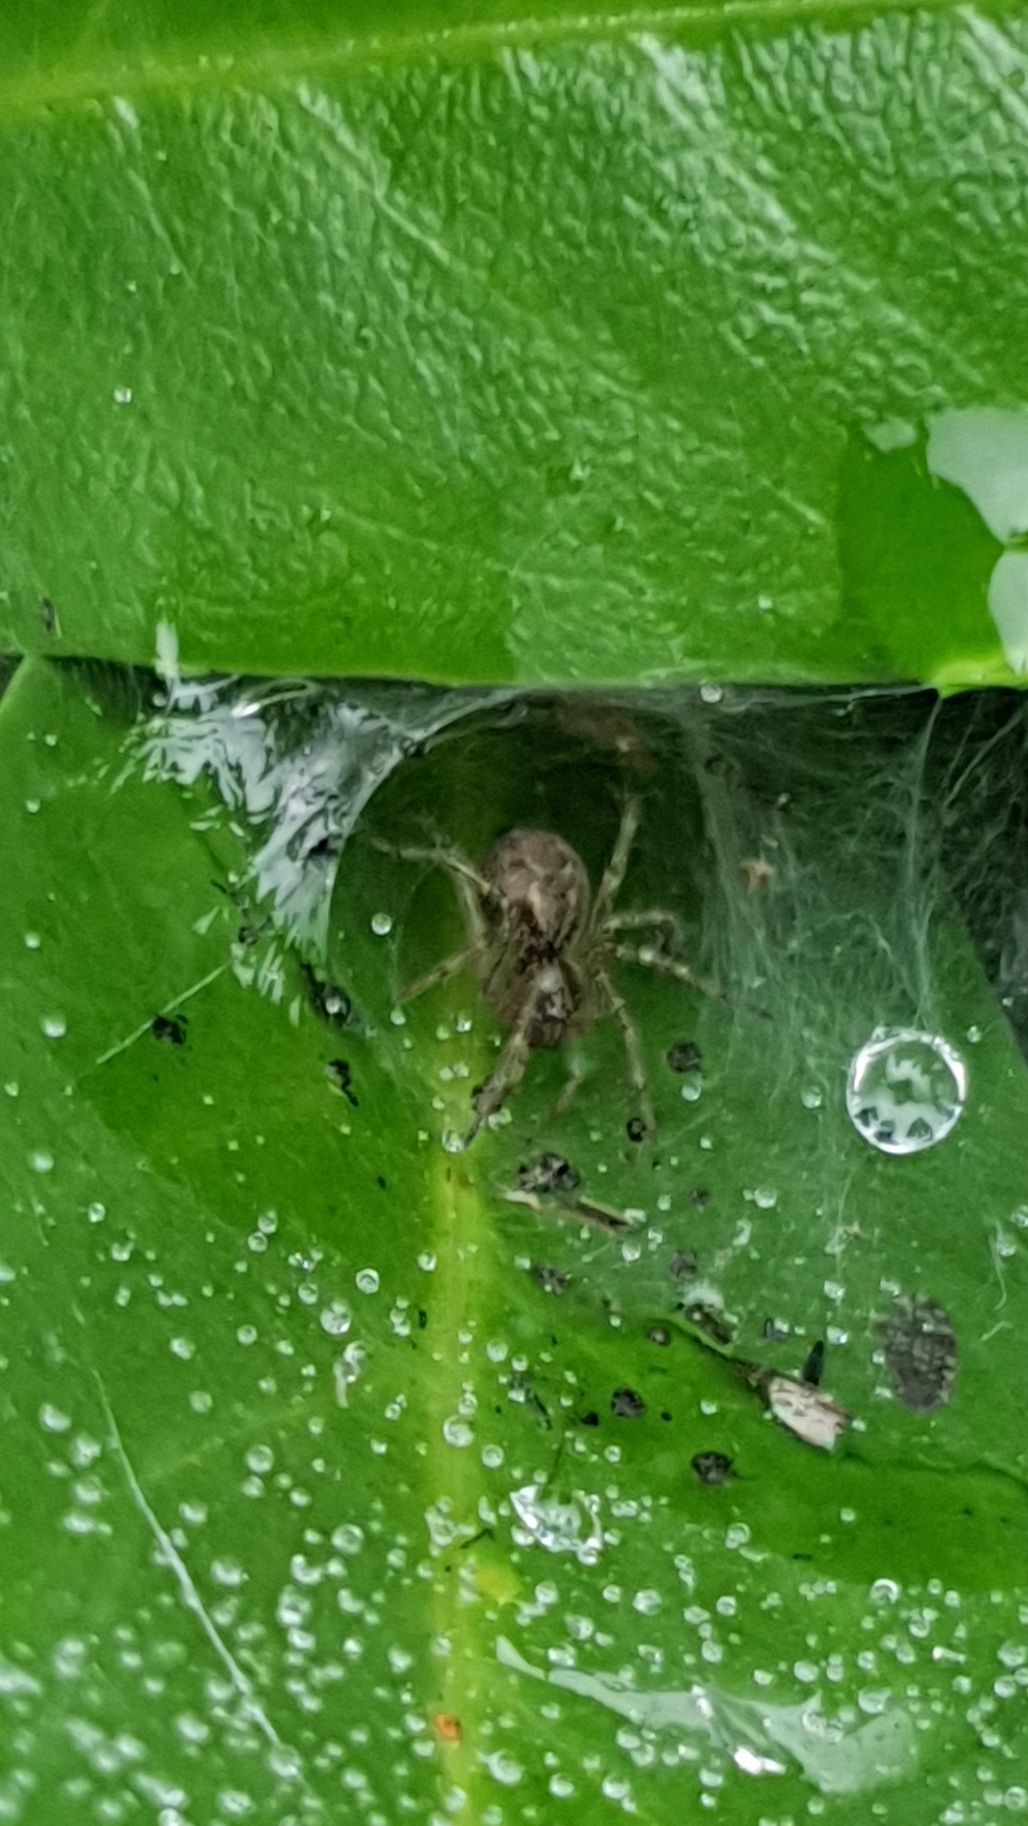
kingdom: Animalia
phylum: Arthropoda
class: Arachnida
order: Araneae
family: Agelenidae
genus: Allagelena
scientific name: Allagelena gracilens
